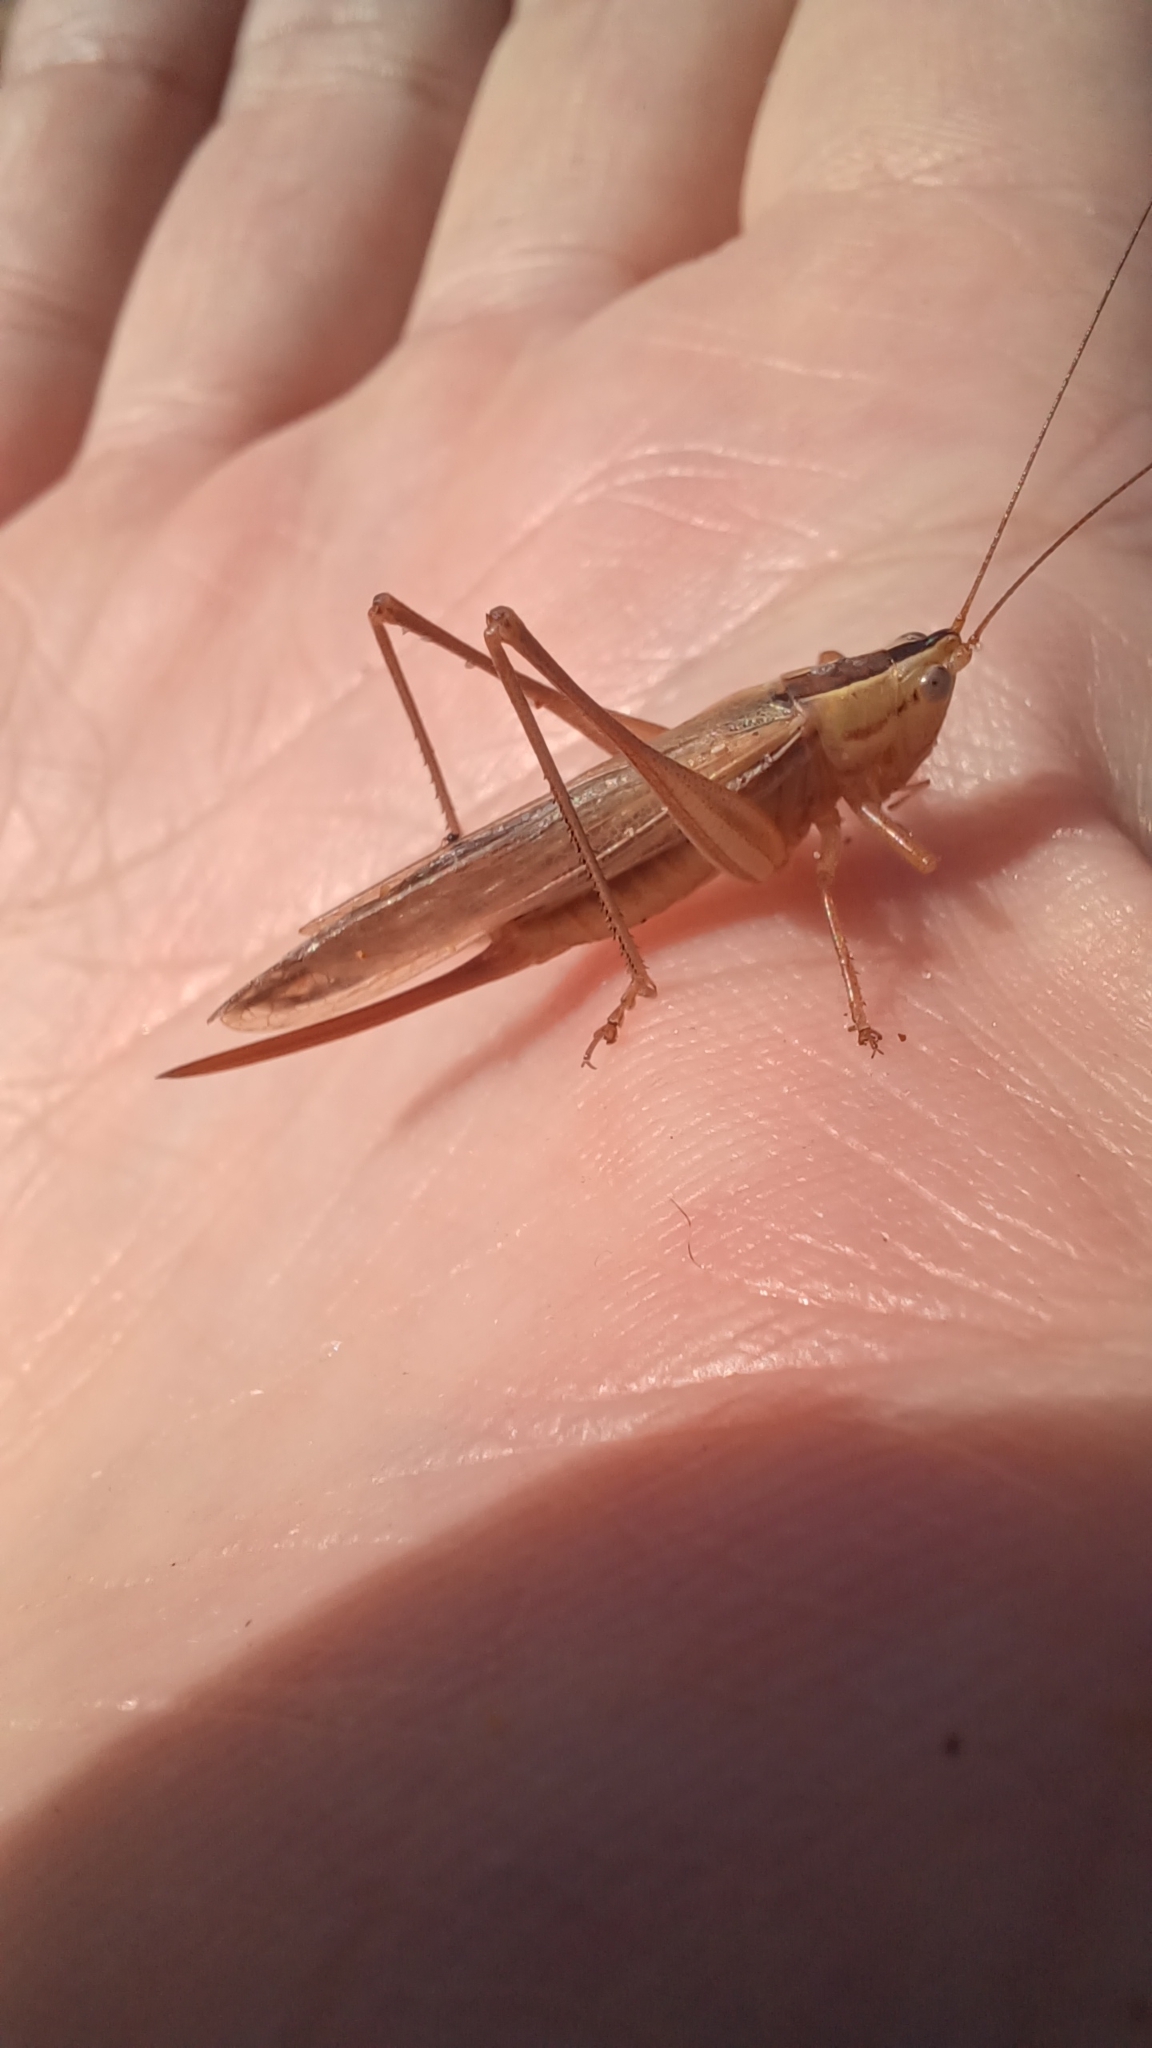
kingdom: Animalia
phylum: Arthropoda
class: Insecta
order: Orthoptera
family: Tettigoniidae
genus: Conocephalus
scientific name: Conocephalus albescens
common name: Whitish meadow katydid
